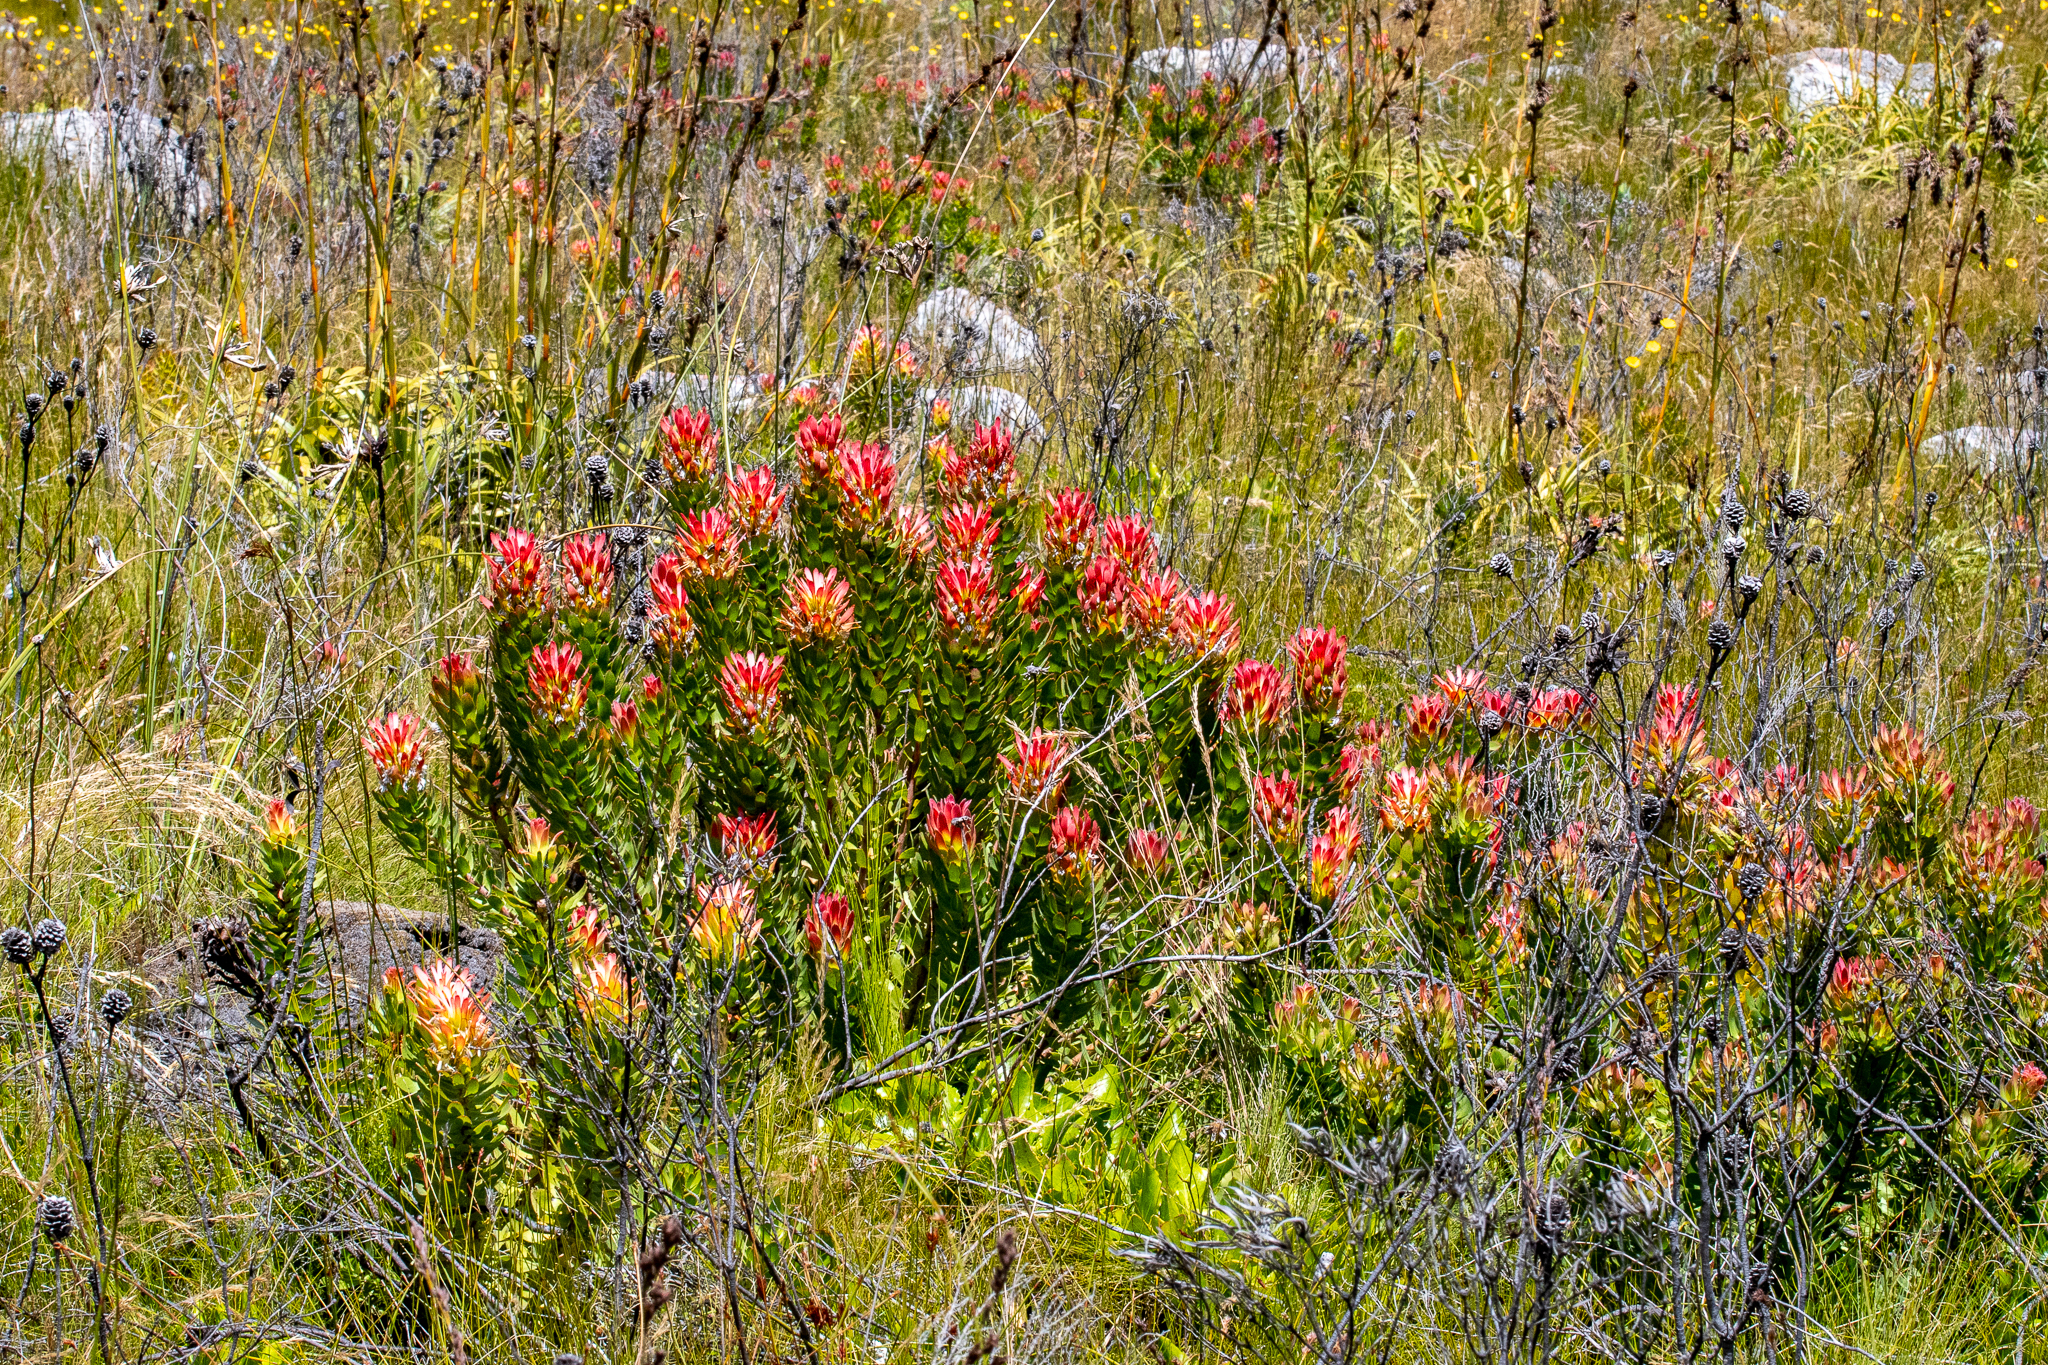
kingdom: Plantae
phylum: Tracheophyta
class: Magnoliopsida
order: Proteales
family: Proteaceae
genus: Mimetes
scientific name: Mimetes cucullatus
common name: Common pagoda
